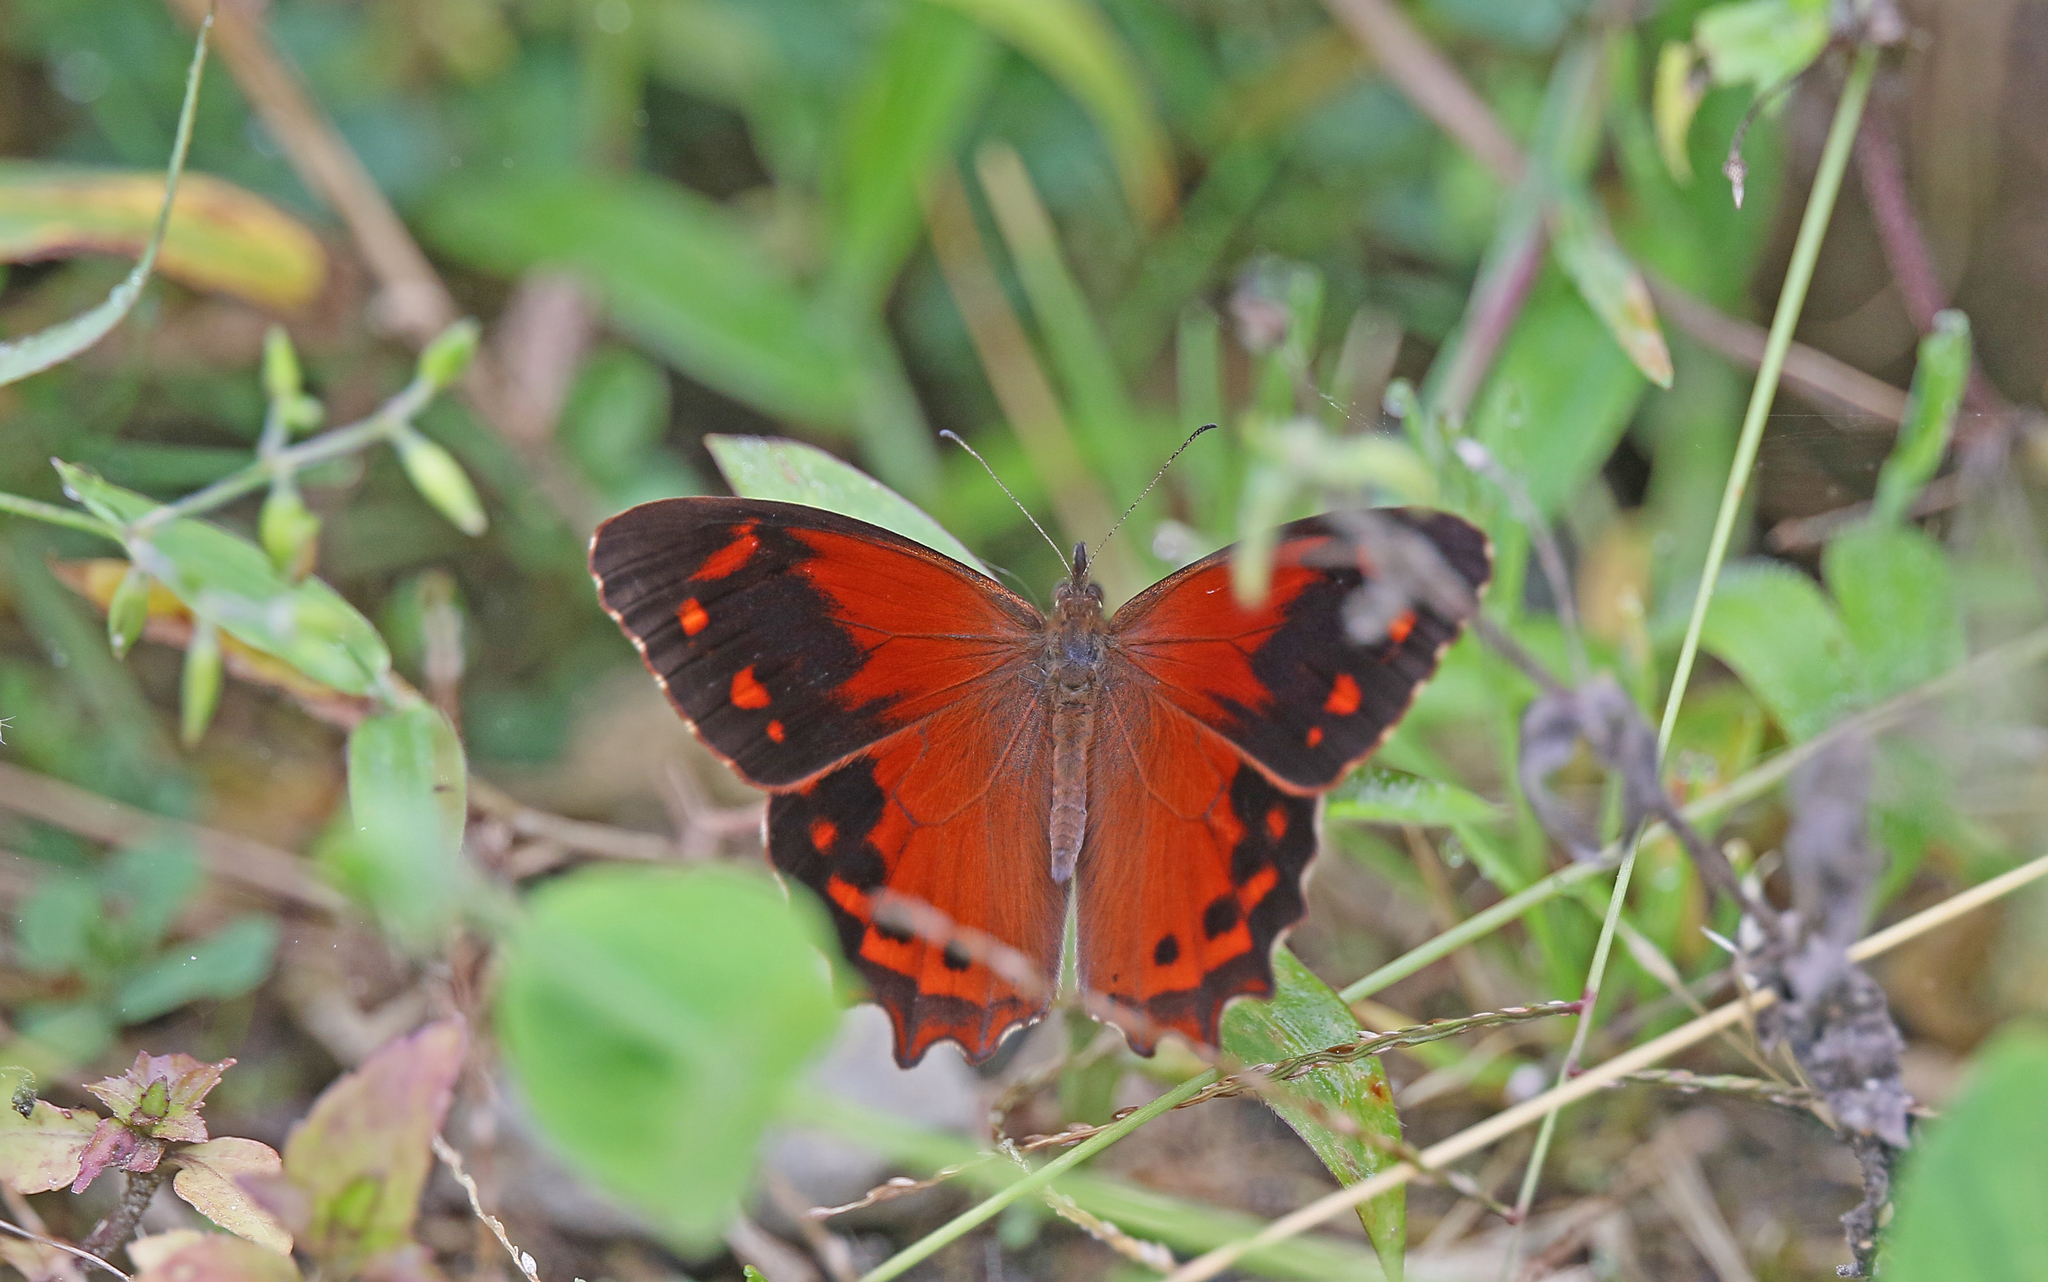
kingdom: Animalia
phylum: Arthropoda
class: Insecta
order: Lepidoptera
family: Nymphalidae
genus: Lasiophila
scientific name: Lasiophila orbifera
